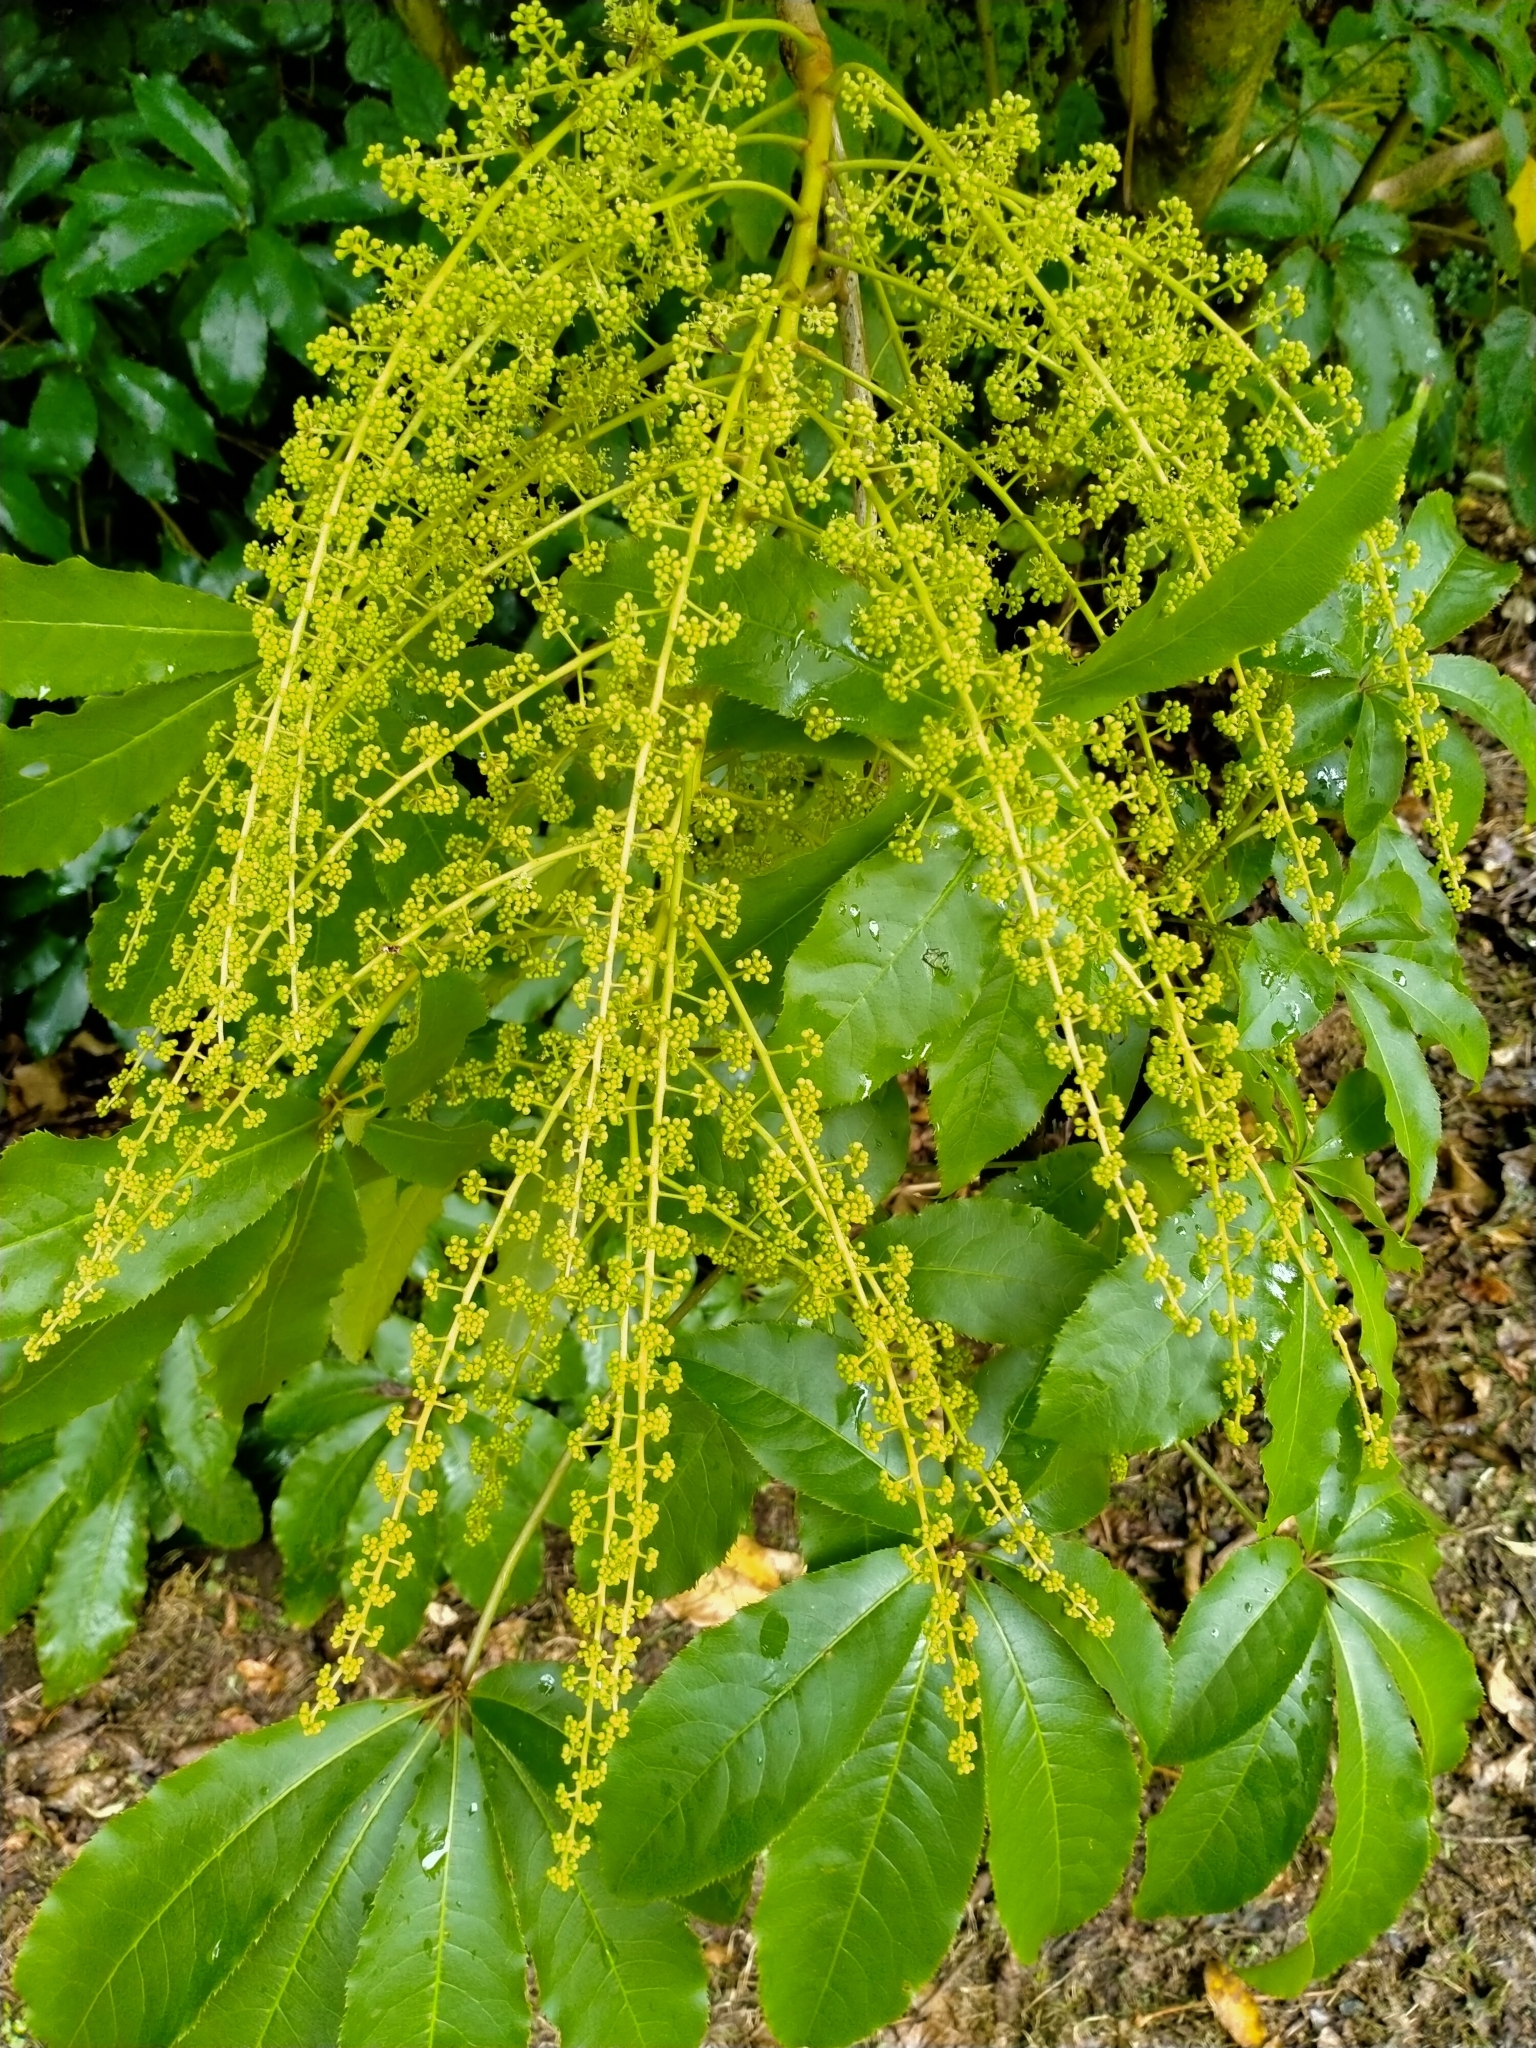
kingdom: Plantae
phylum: Tracheophyta
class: Magnoliopsida
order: Apiales
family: Araliaceae
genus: Schefflera
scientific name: Schefflera digitata
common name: Pate
